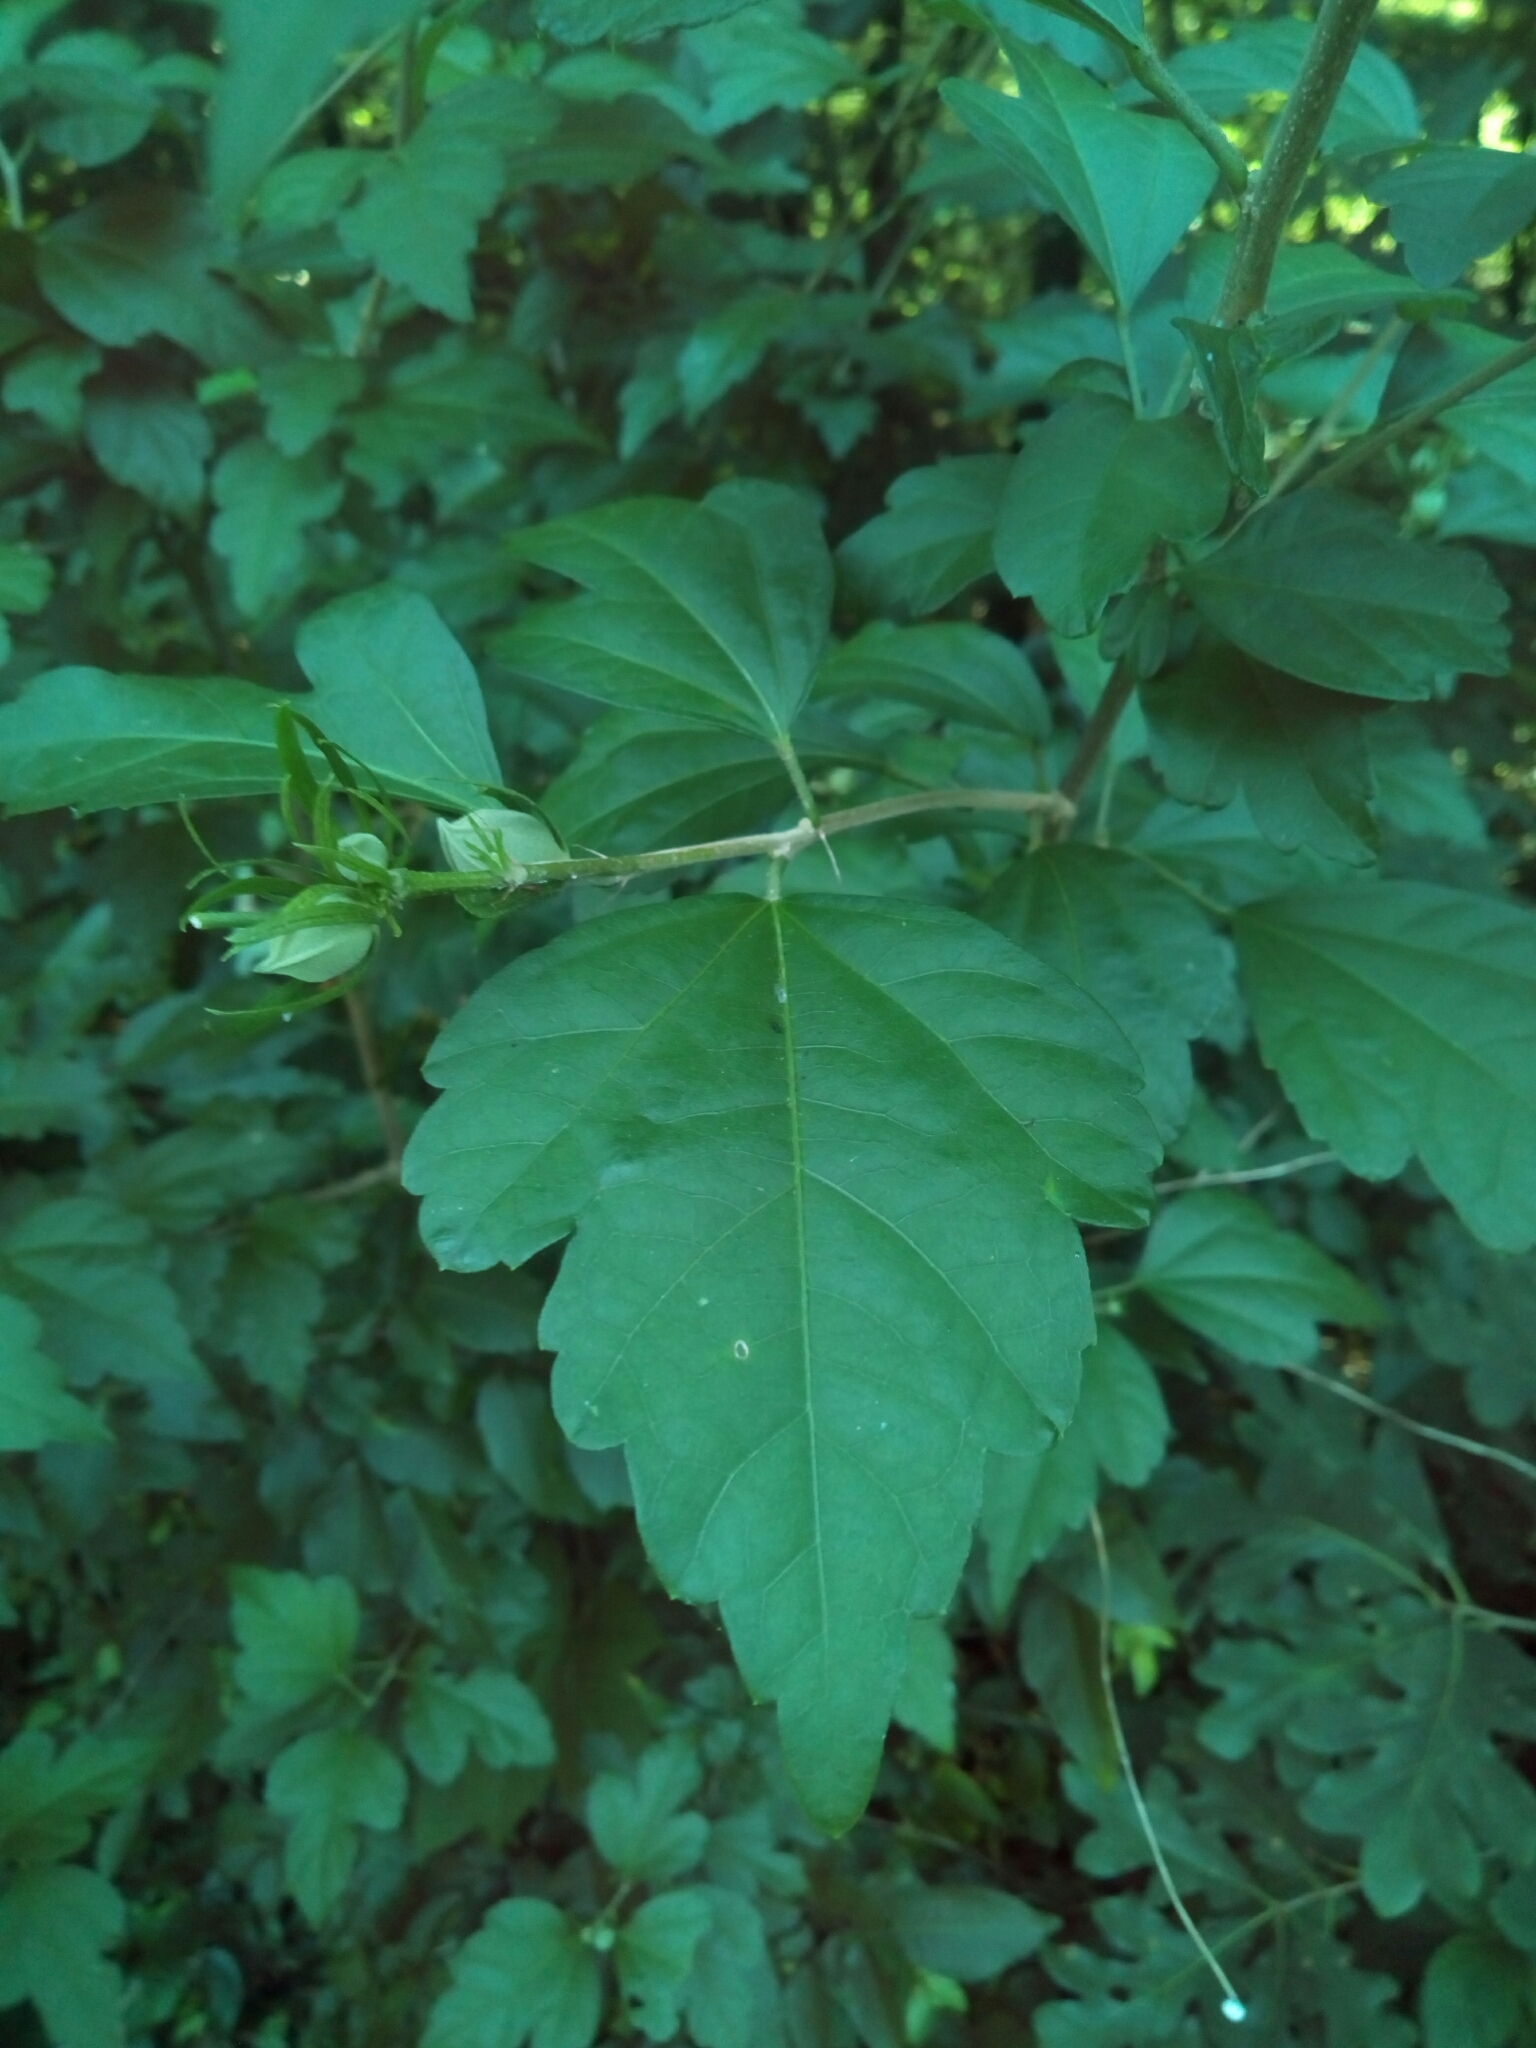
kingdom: Plantae
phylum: Tracheophyta
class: Magnoliopsida
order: Malvales
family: Malvaceae
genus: Hibiscus
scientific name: Hibiscus syriacus
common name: Syrian ketmia
